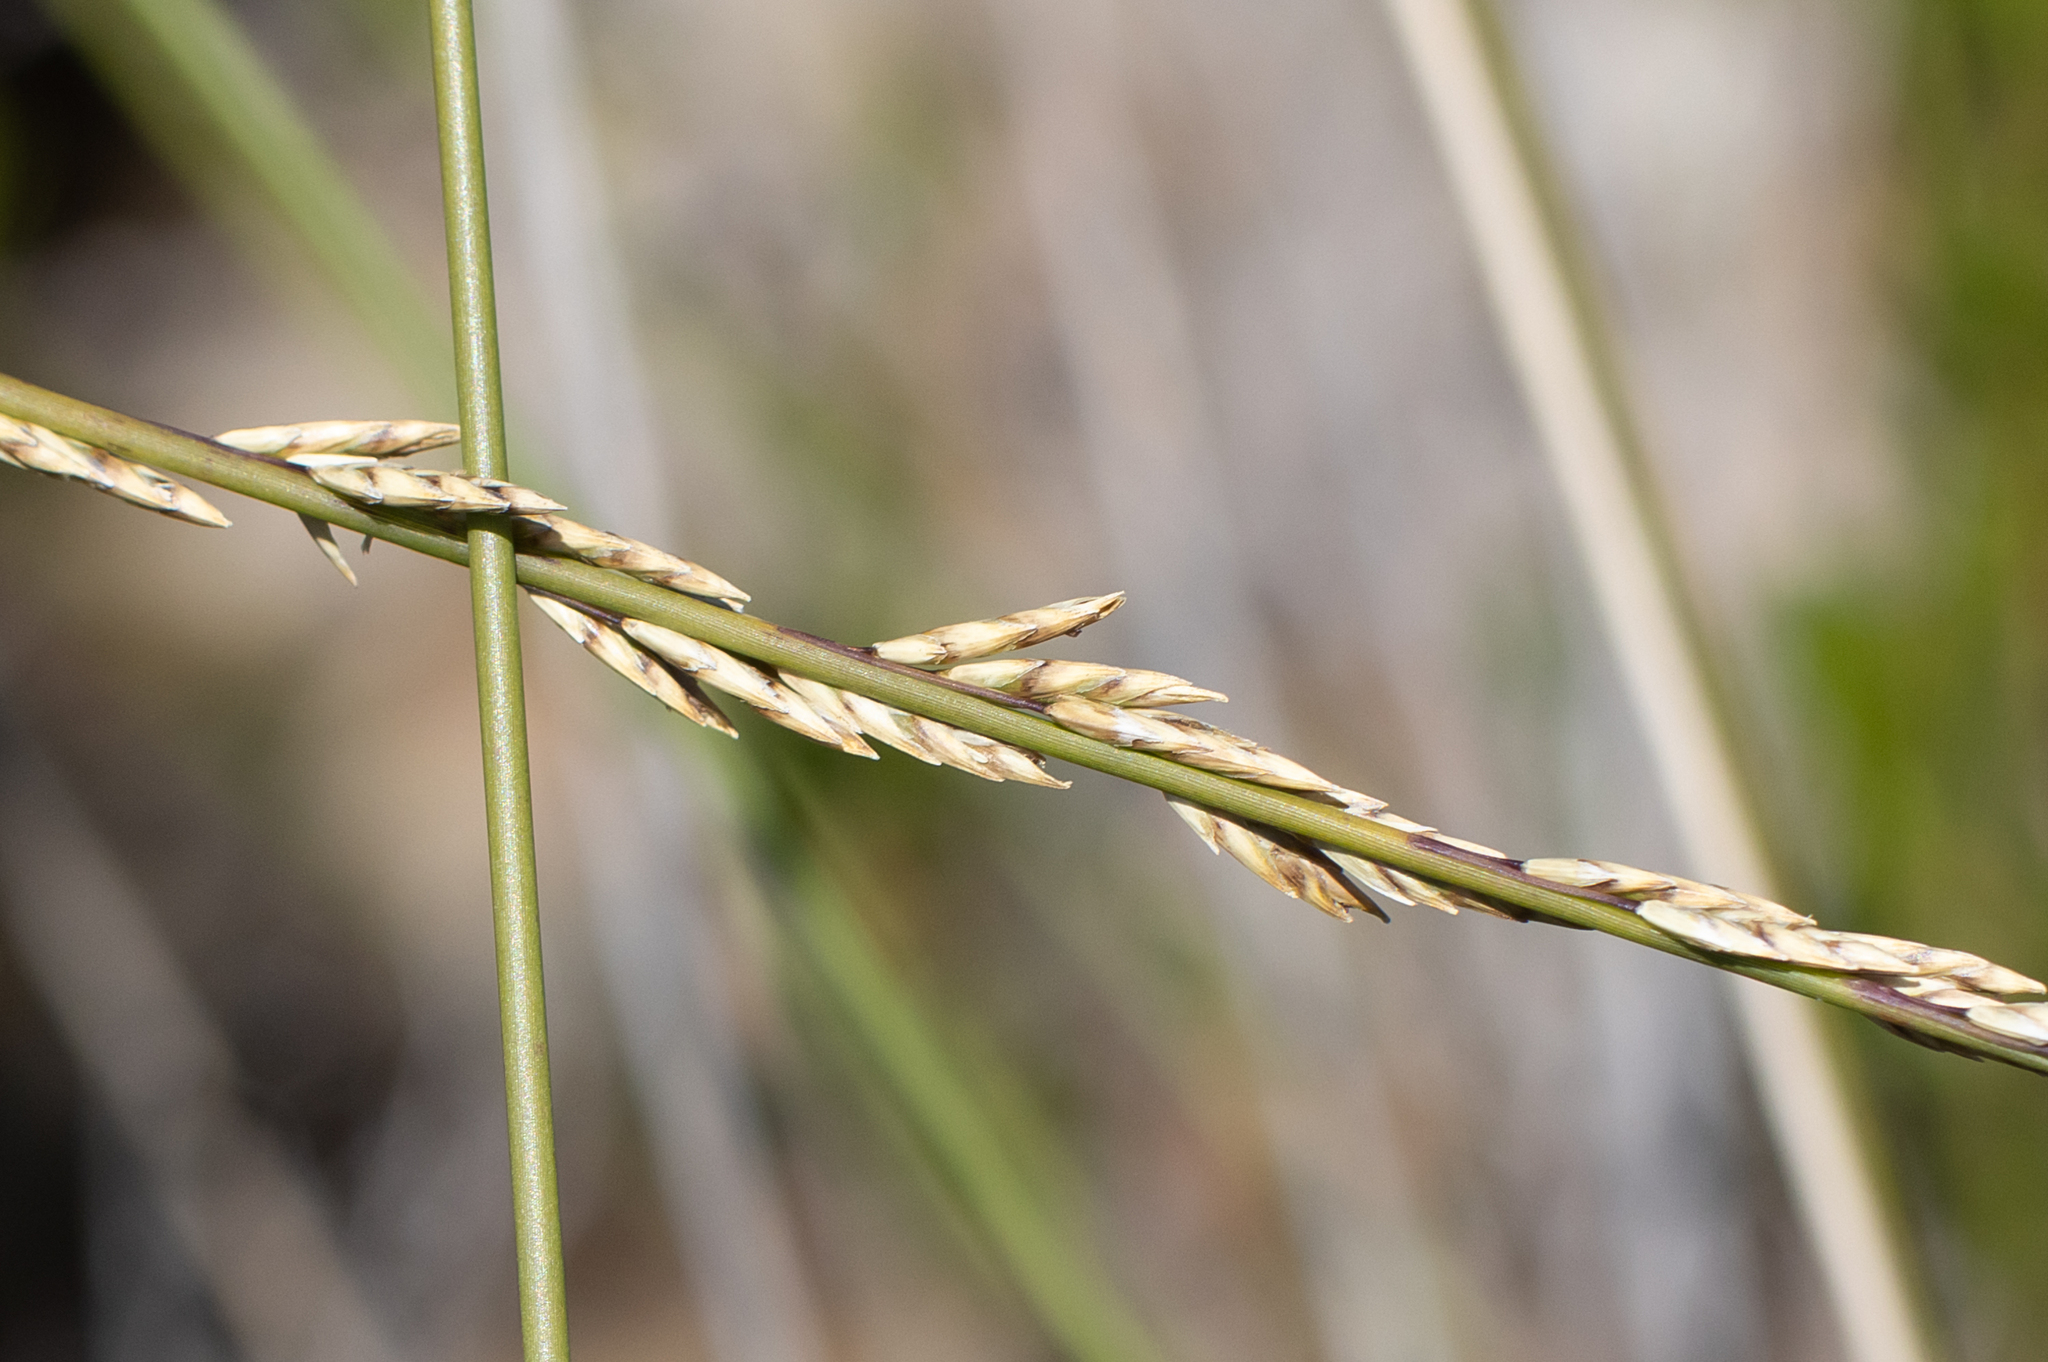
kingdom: Plantae
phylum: Tracheophyta
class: Liliopsida
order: Poales
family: Poaceae
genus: Spartochloa
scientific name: Spartochloa scirpoidea
